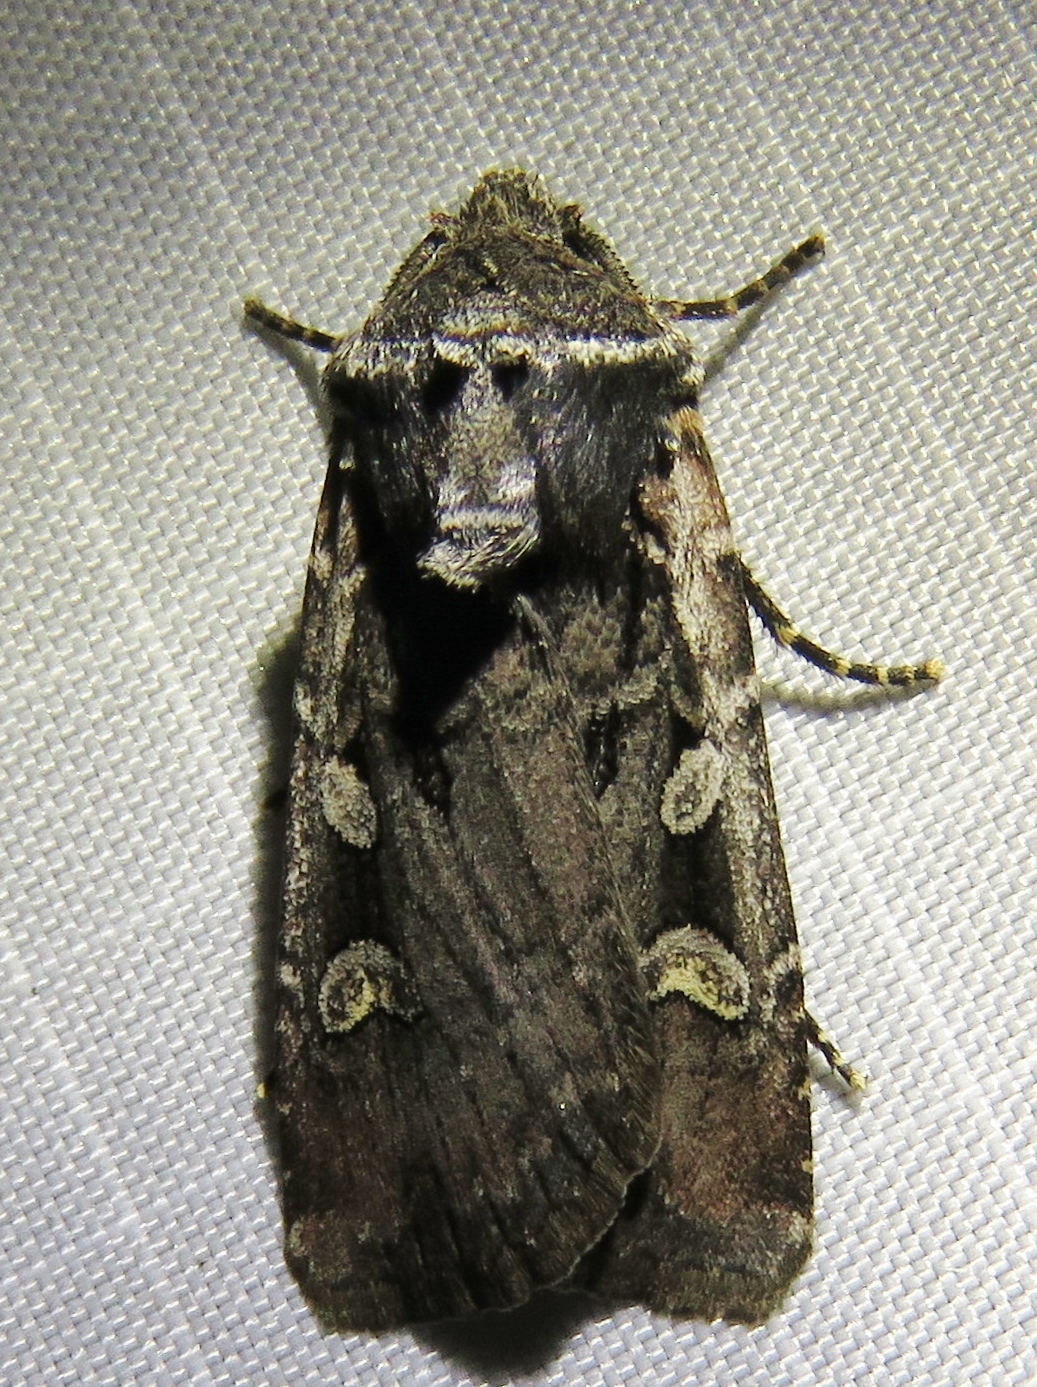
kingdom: Animalia
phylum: Arthropoda
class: Insecta
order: Lepidoptera
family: Noctuidae
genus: Euxoa
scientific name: Euxoa obelisca
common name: Square-spot dart
